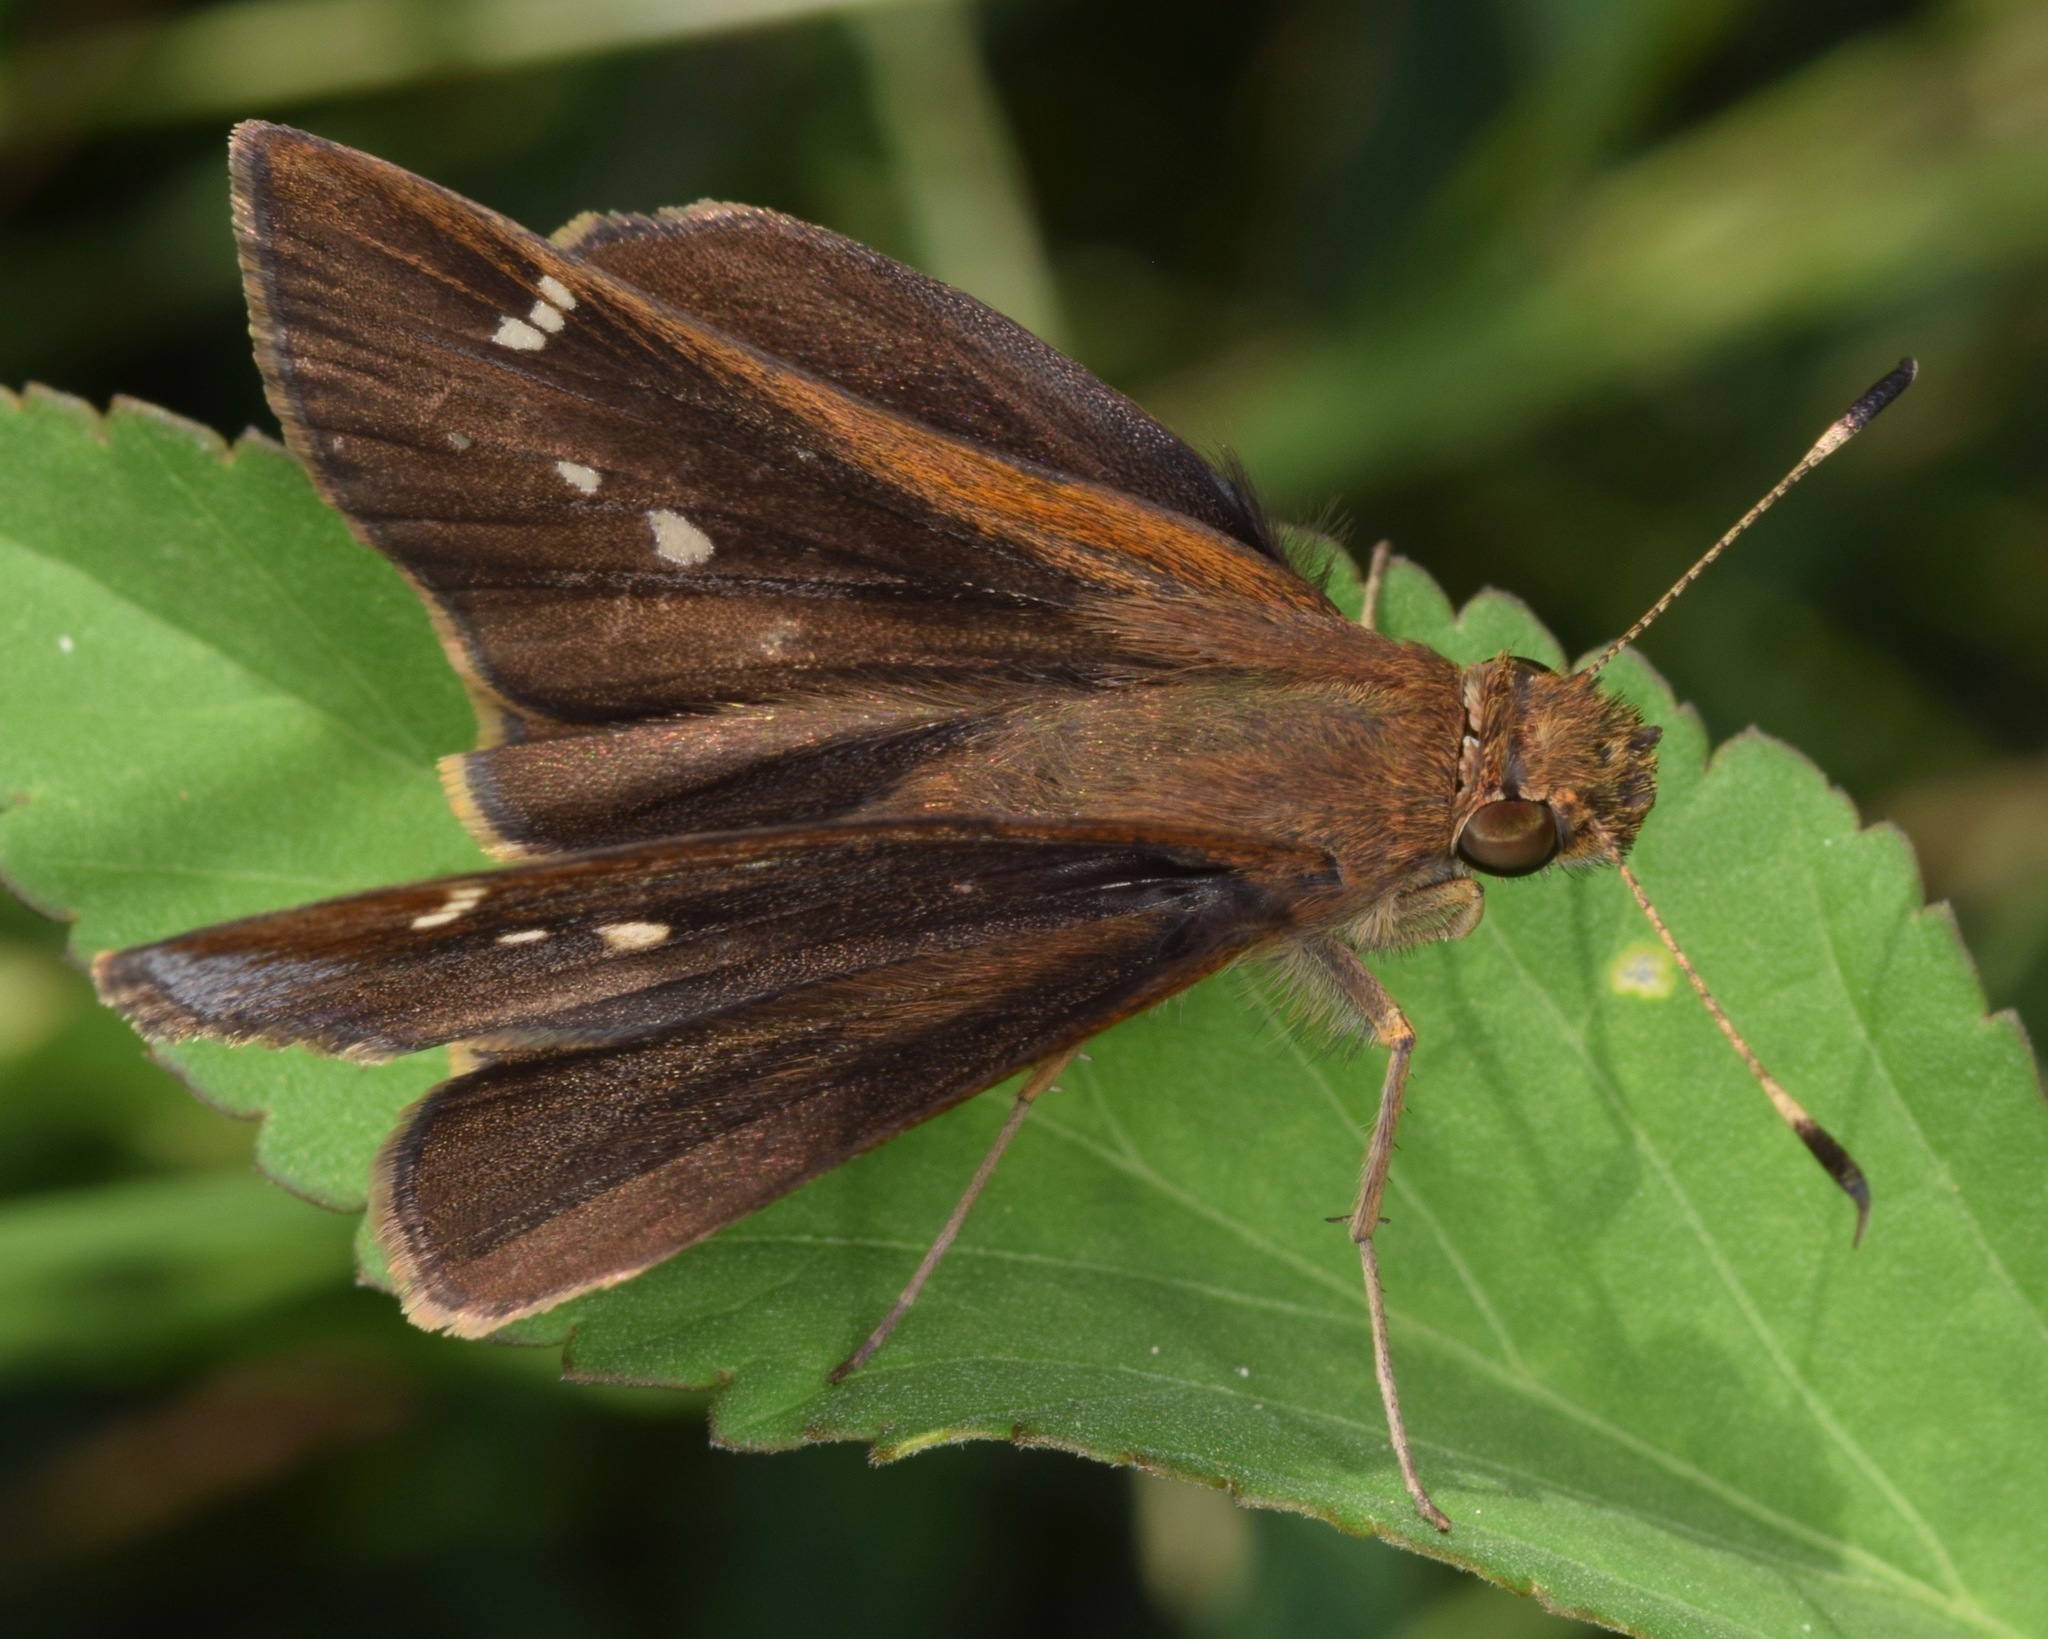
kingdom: Animalia
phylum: Arthropoda
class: Insecta
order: Lepidoptera
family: Hesperiidae
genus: Lerema
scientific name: Lerema accius
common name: Clouded skipper
